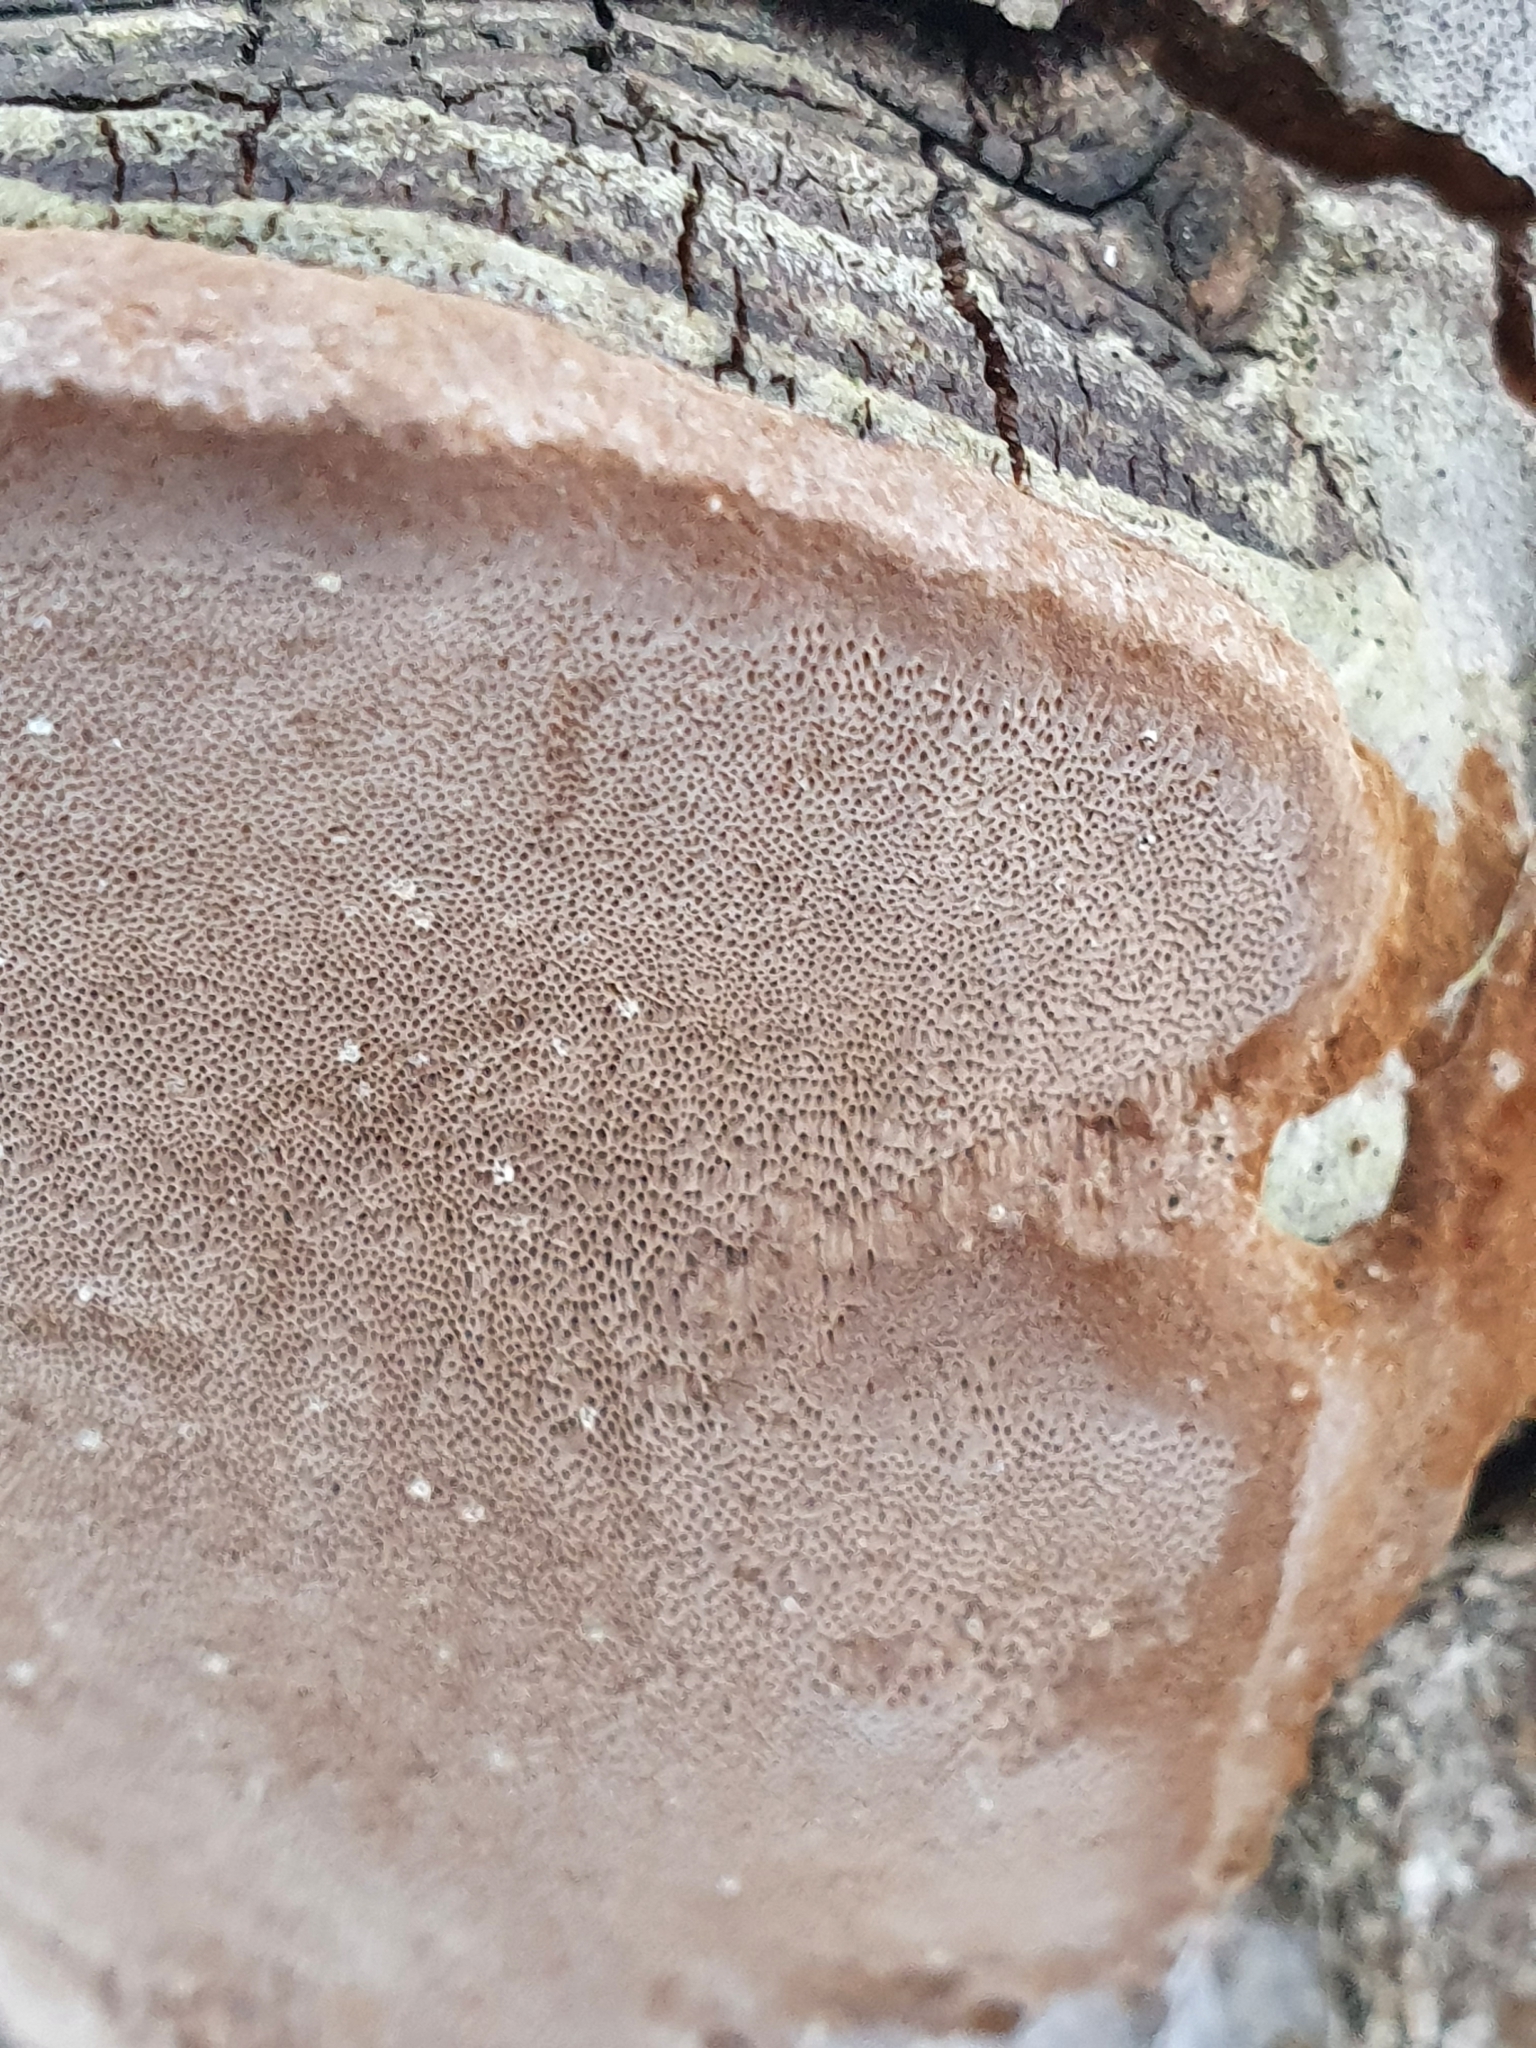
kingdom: Fungi
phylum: Basidiomycota
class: Agaricomycetes
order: Hymenochaetales
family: Hymenochaetaceae
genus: Phellinus
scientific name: Phellinus tremulae
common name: Aspen bracket
